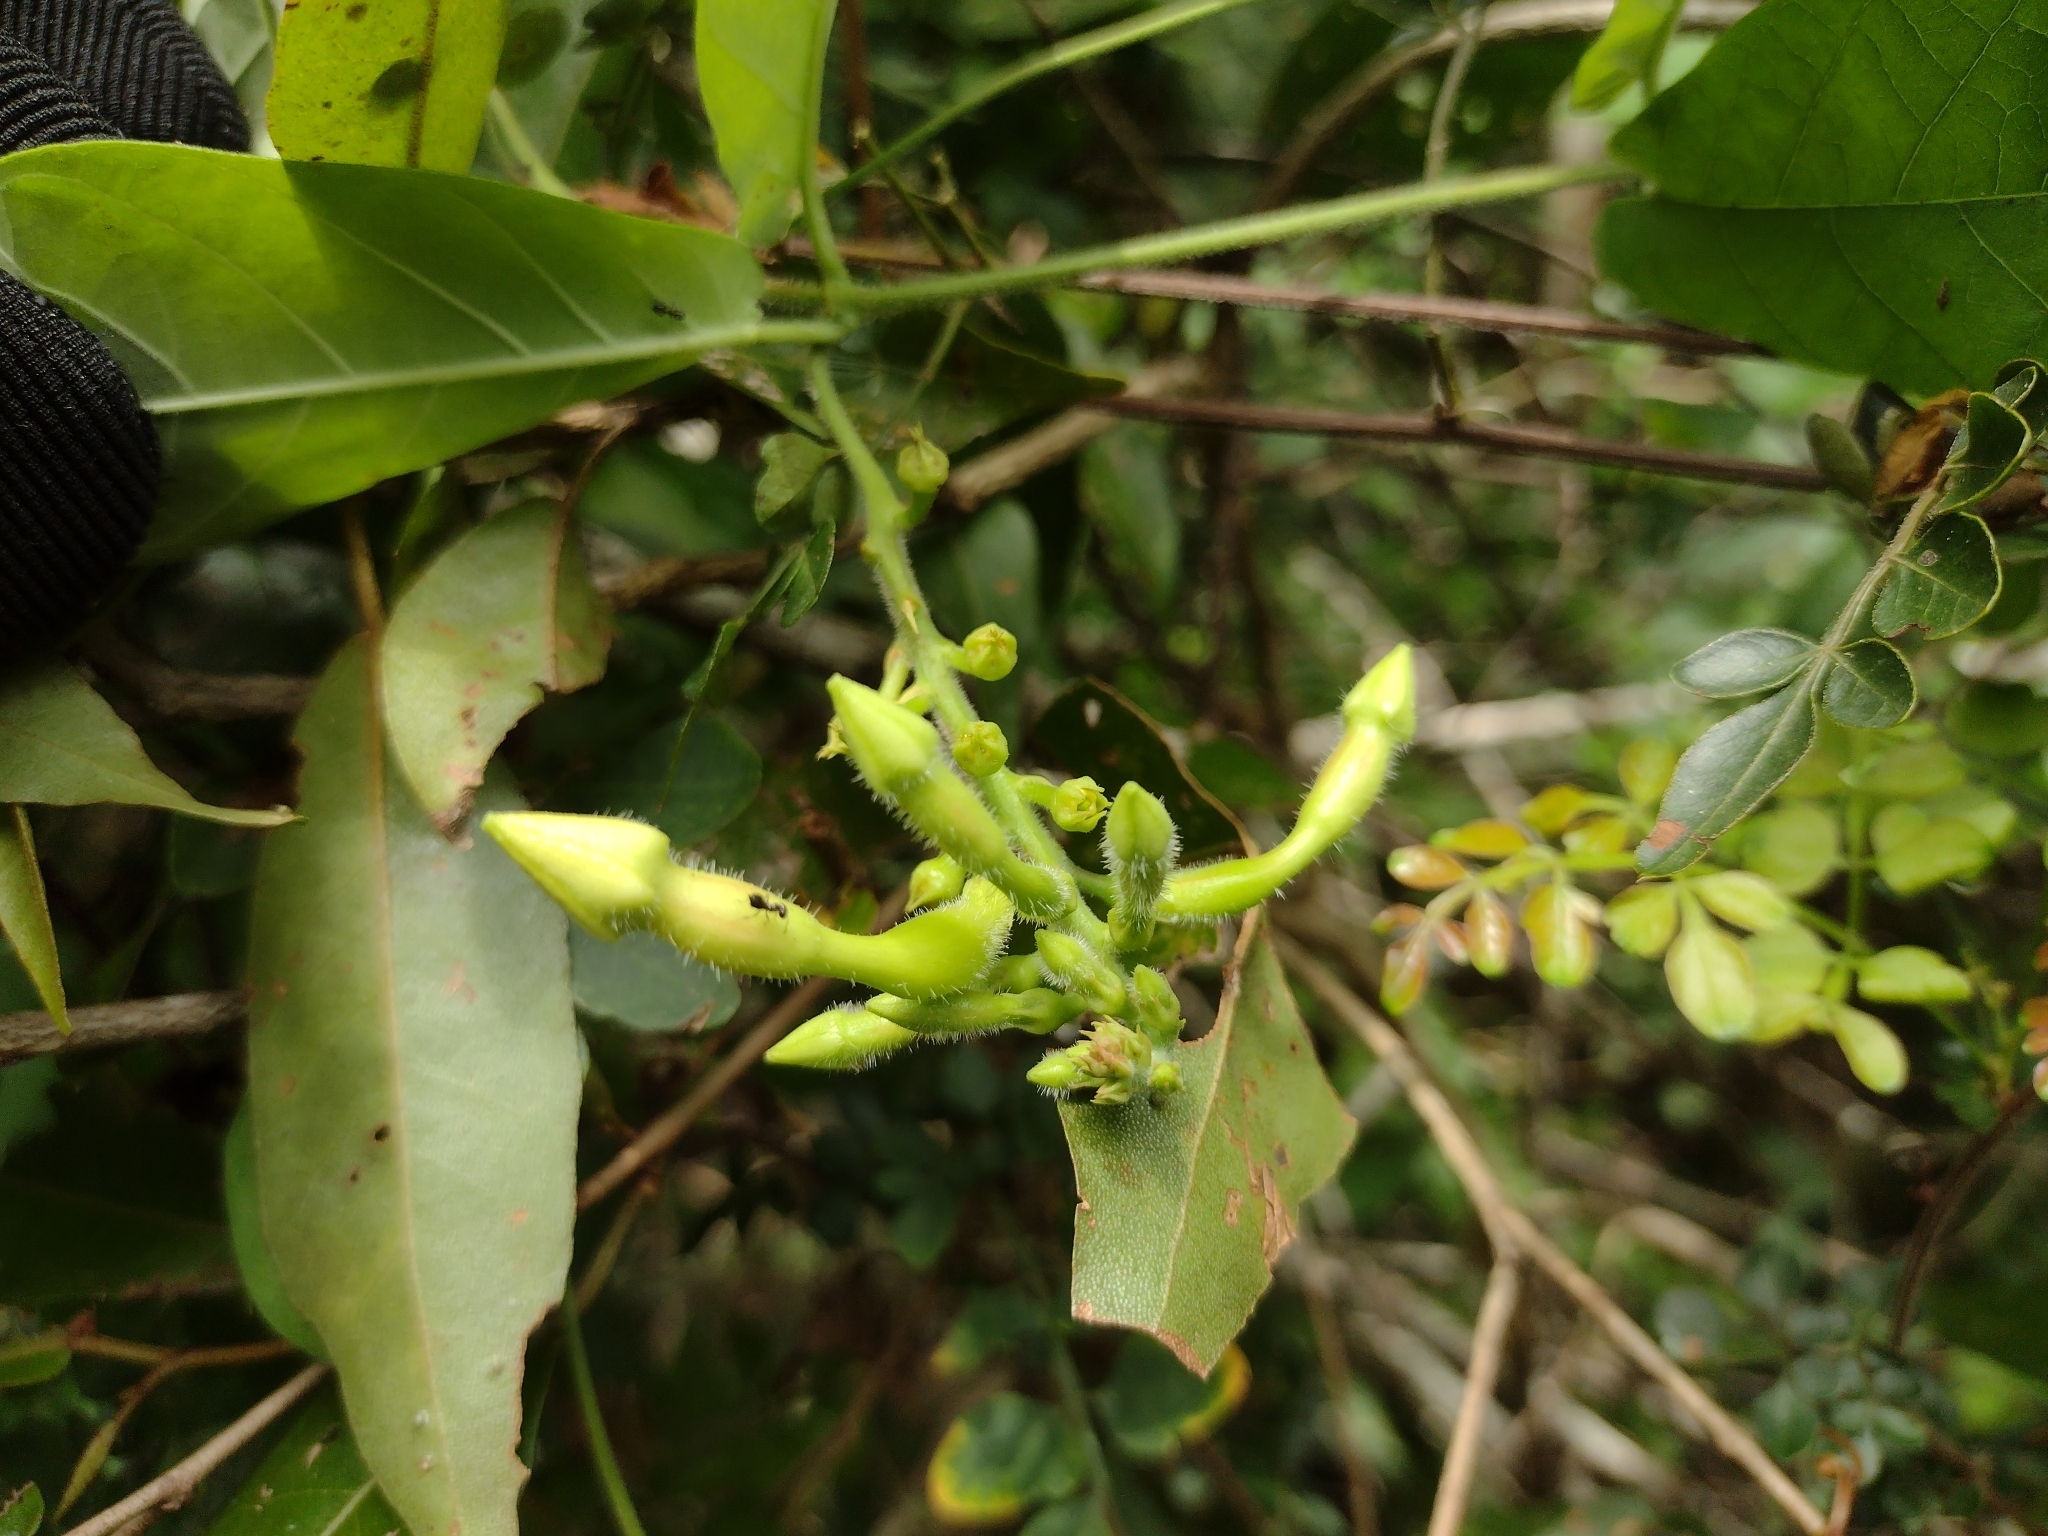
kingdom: Plantae
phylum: Tracheophyta
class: Magnoliopsida
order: Gentianales
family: Apocynaceae
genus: Mandevilla
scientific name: Mandevilla subsagittata
